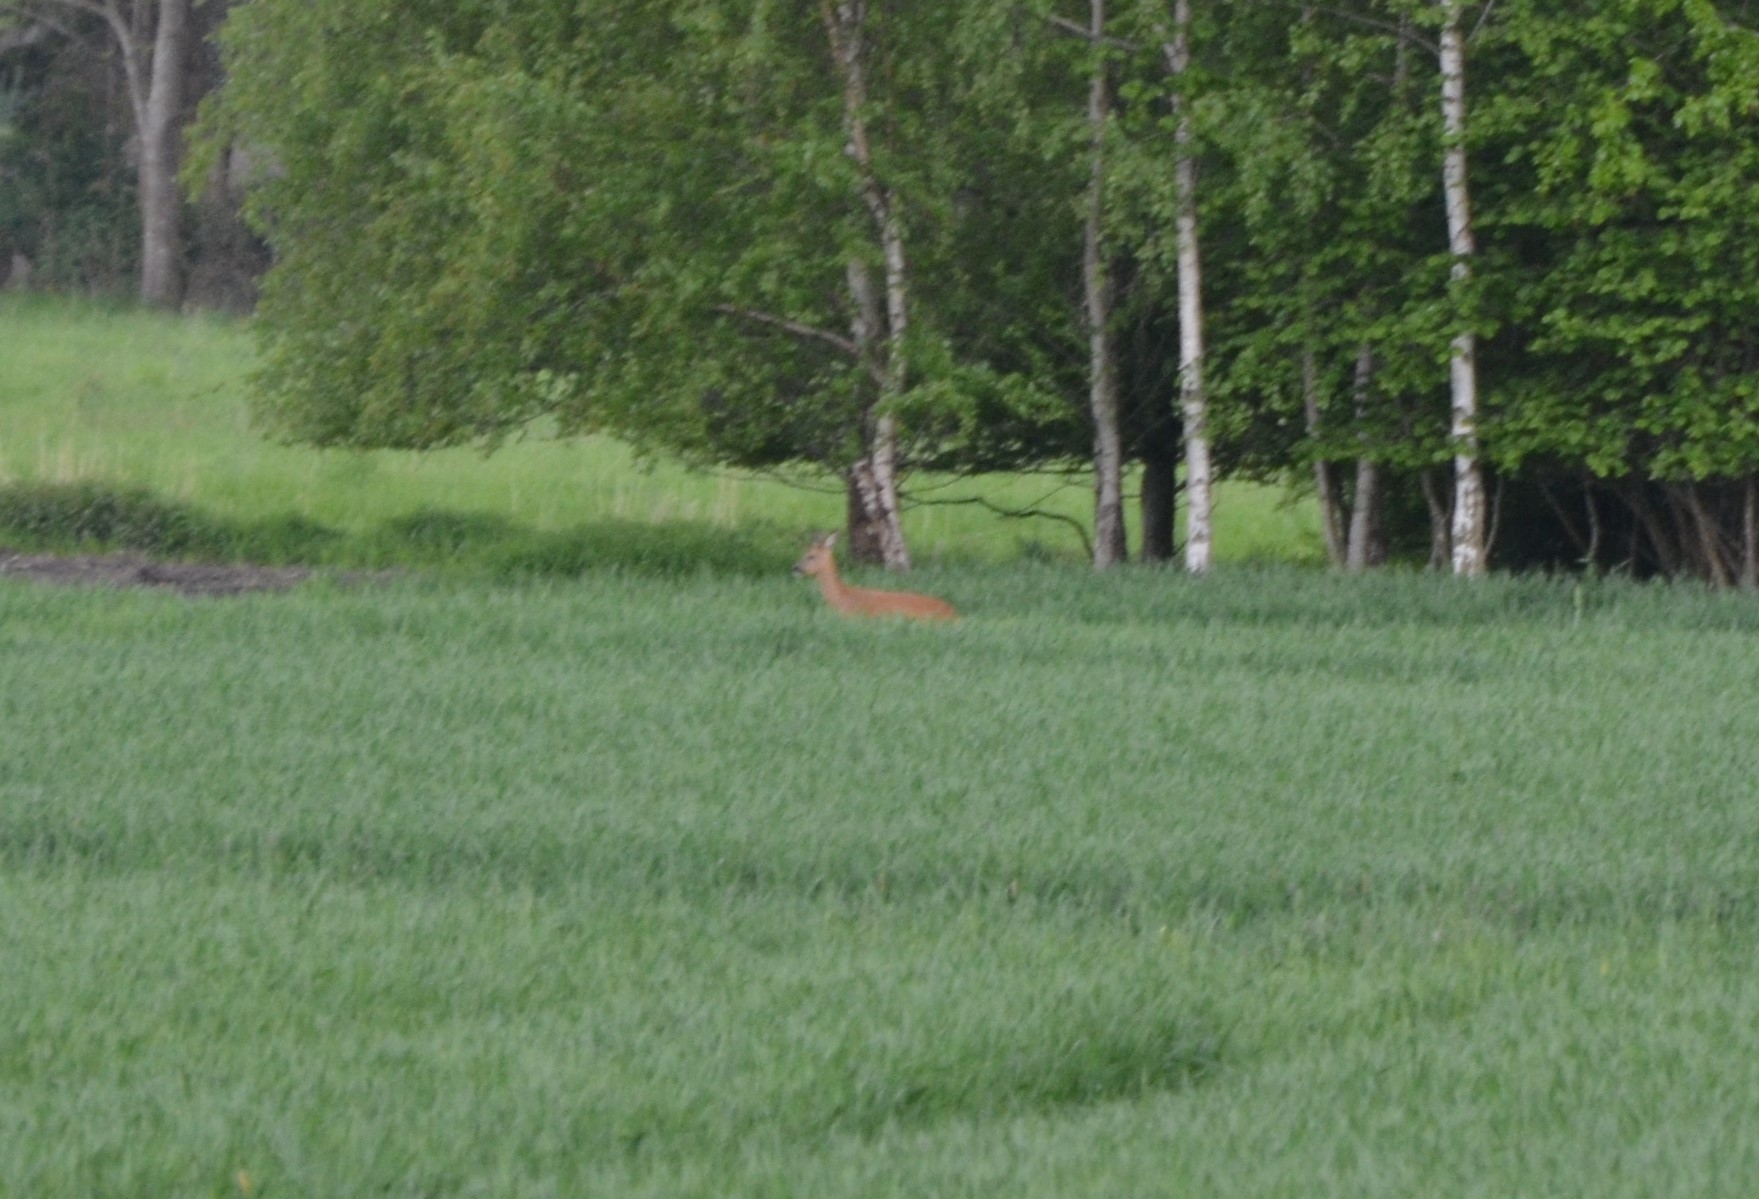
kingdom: Animalia
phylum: Chordata
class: Mammalia
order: Artiodactyla
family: Cervidae
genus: Capreolus
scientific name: Capreolus capreolus
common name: Western roe deer
